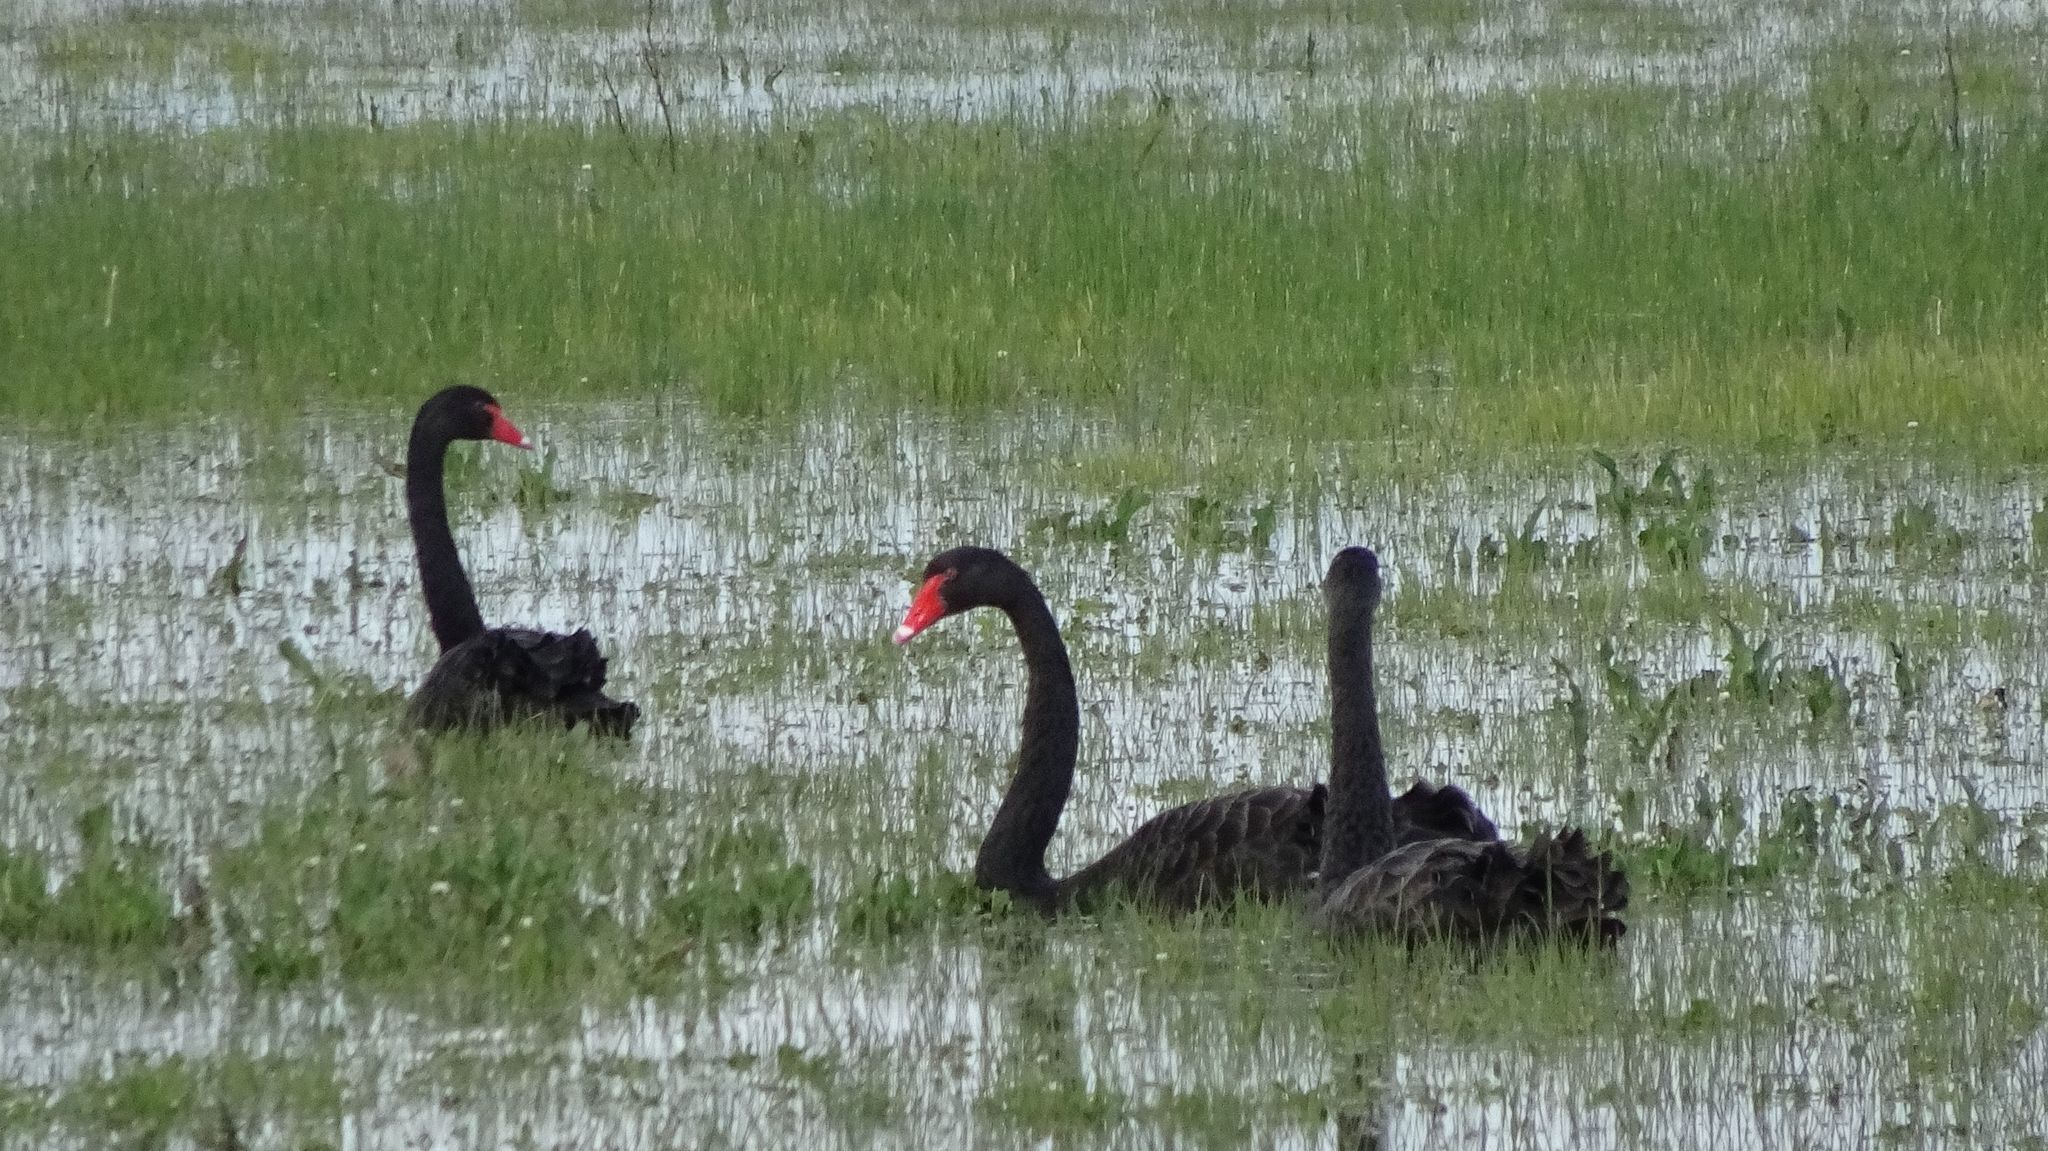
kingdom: Animalia
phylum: Chordata
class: Aves
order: Anseriformes
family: Anatidae
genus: Cygnus
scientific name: Cygnus atratus
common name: Black swan
